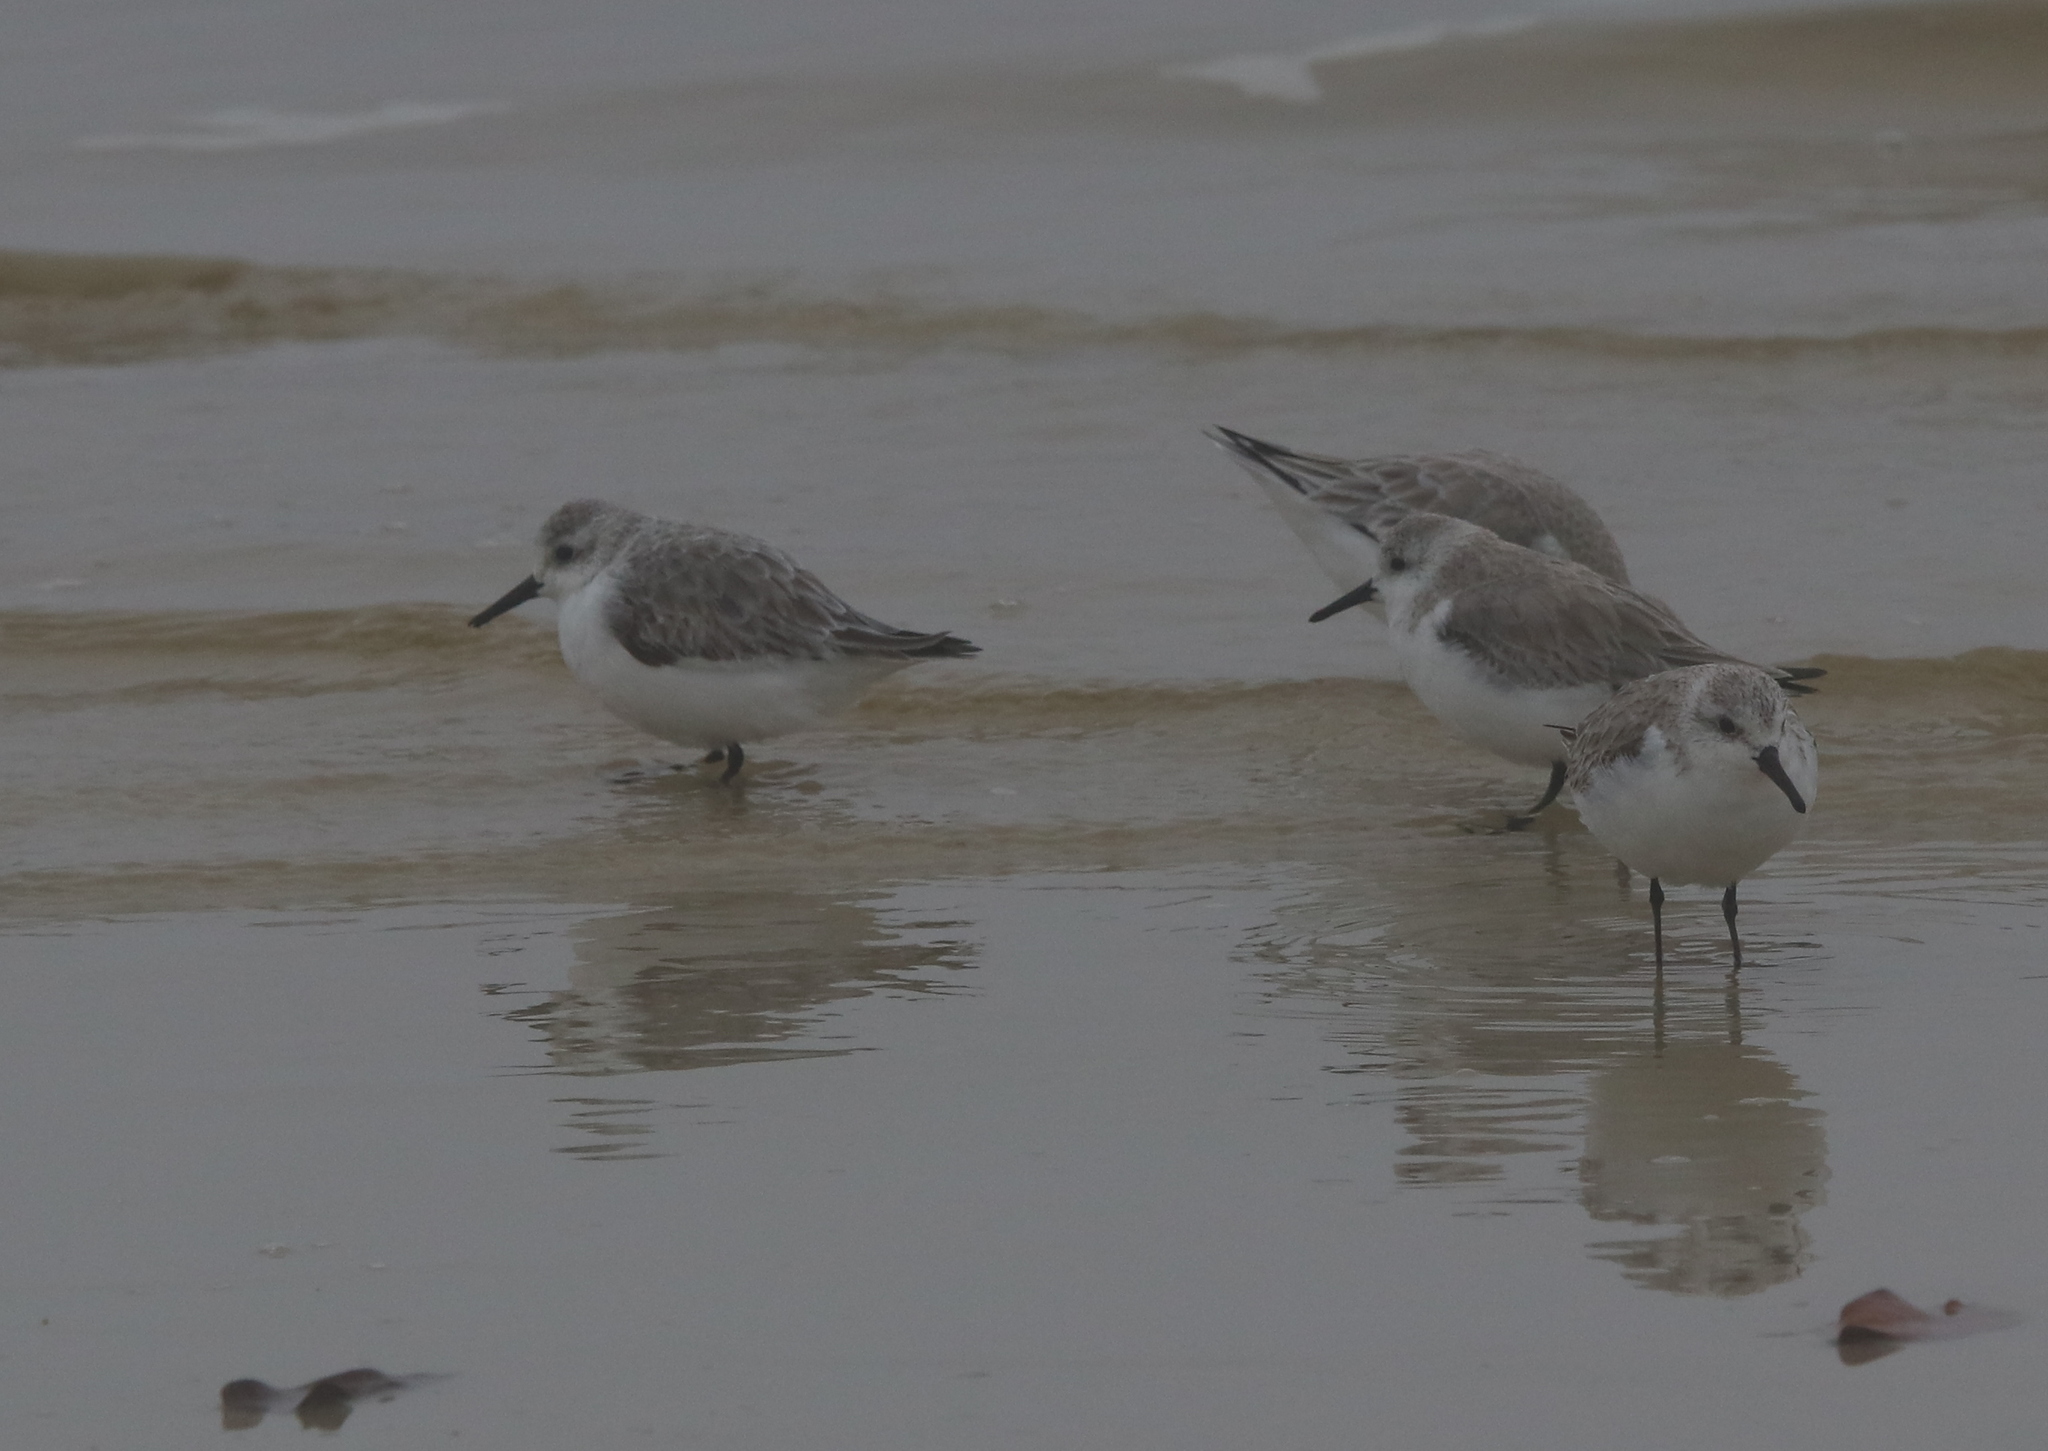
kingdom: Animalia
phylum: Chordata
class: Aves
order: Charadriiformes
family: Scolopacidae
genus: Calidris
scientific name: Calidris alba
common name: Sanderling
